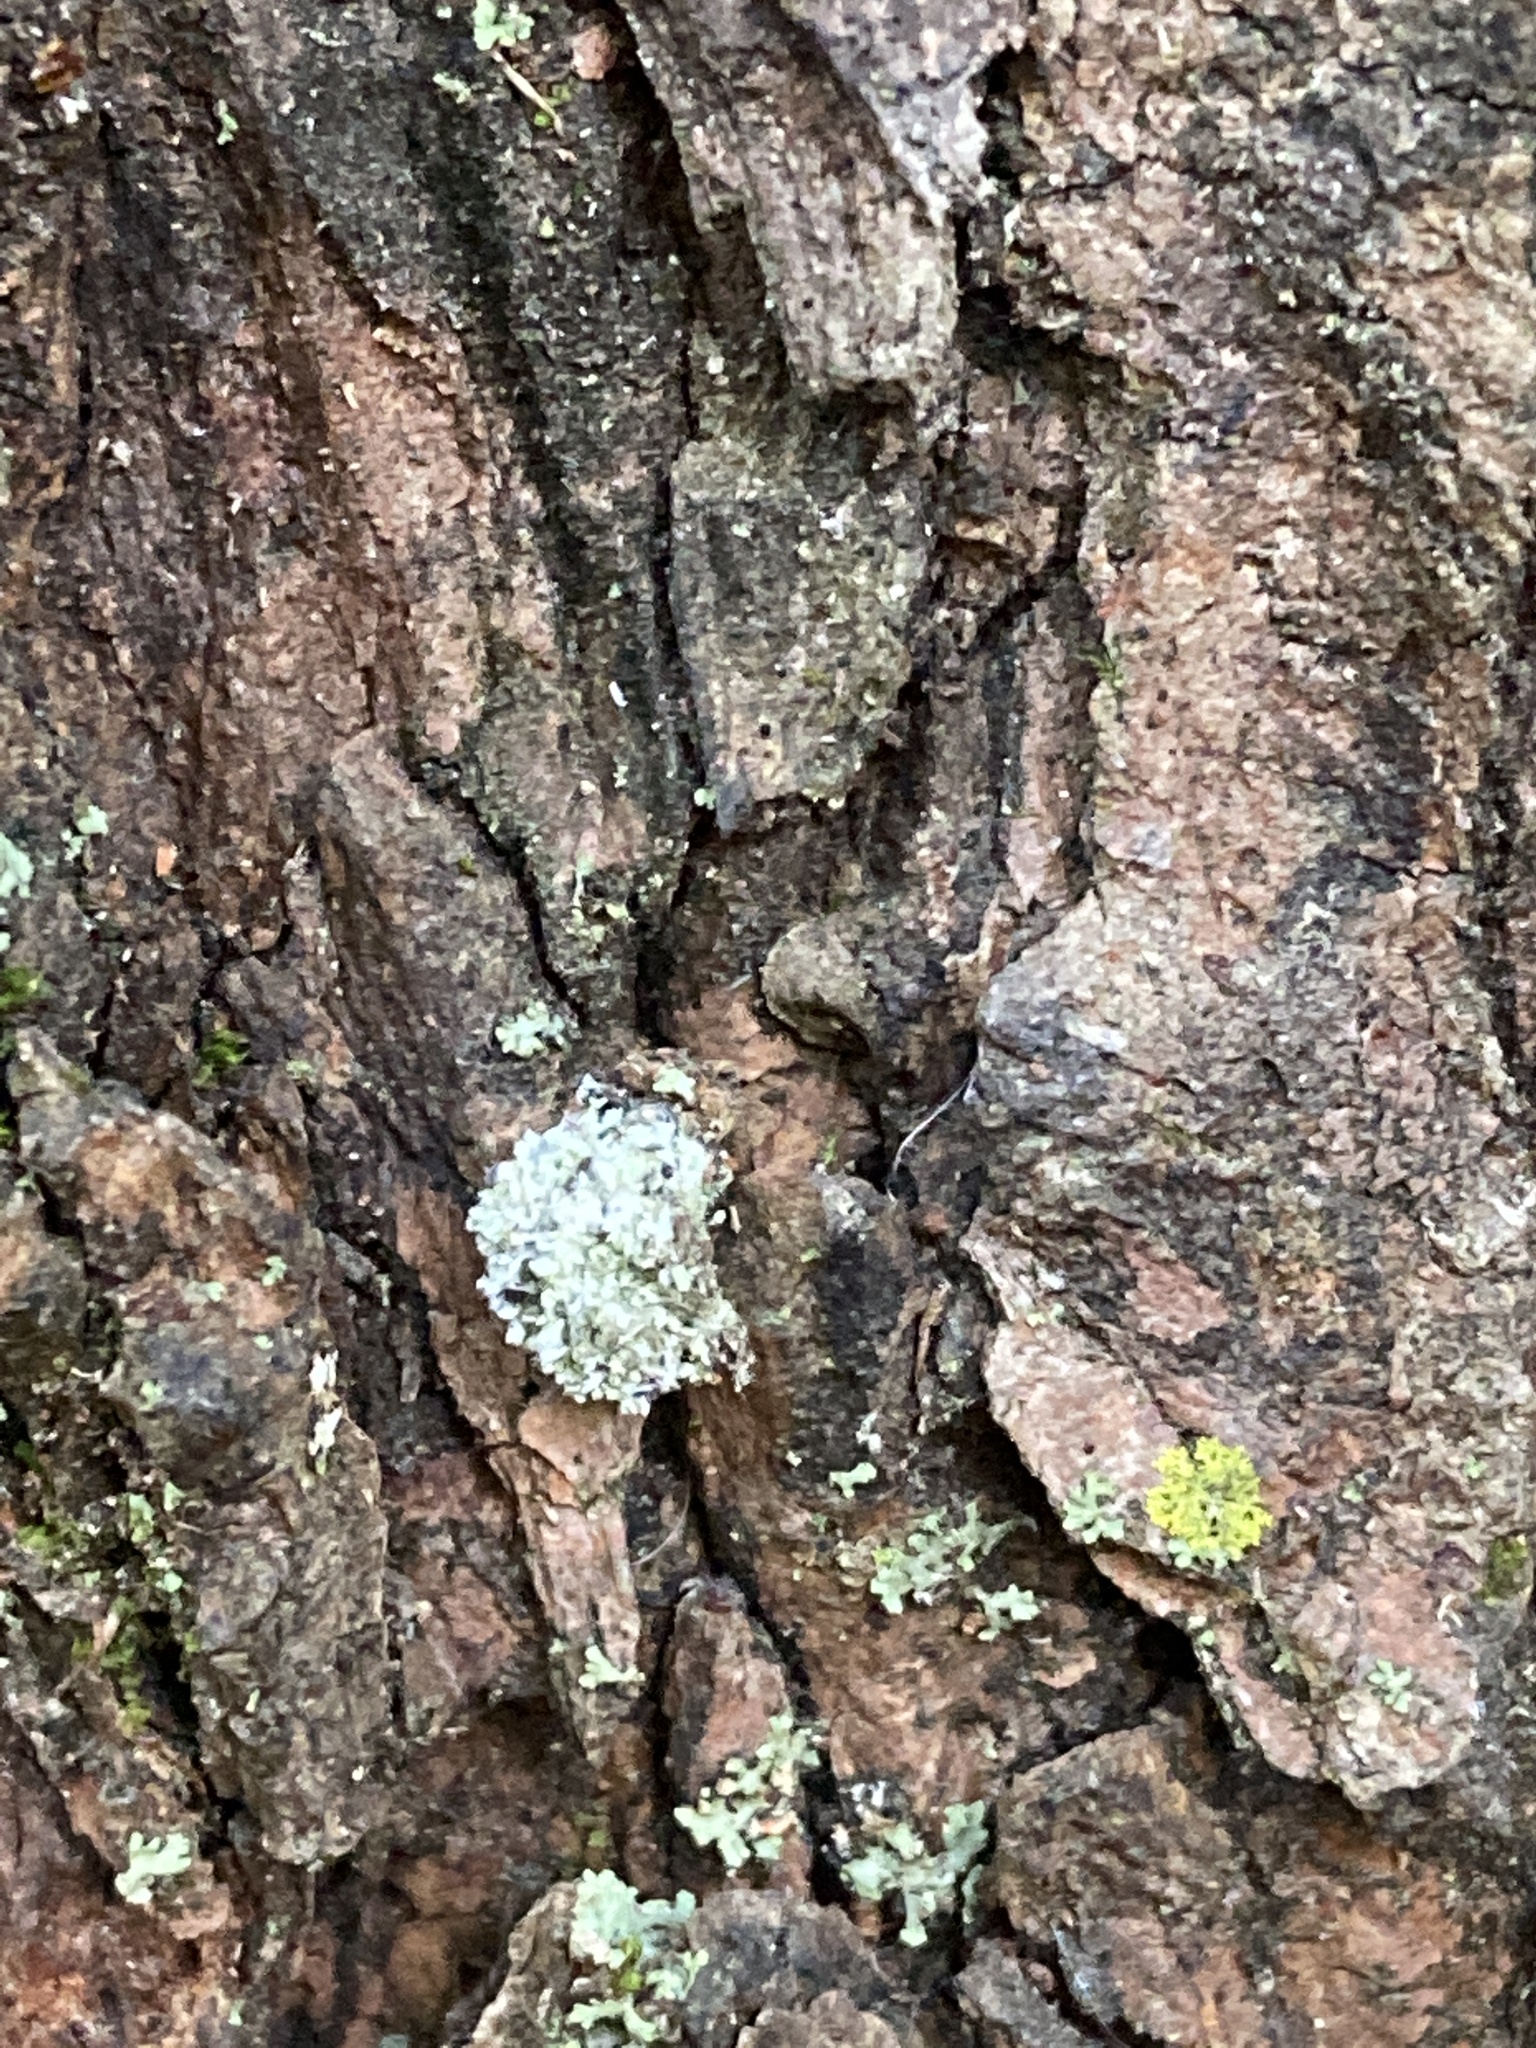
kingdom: Animalia
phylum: Arthropoda
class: Insecta
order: Neuroptera
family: Chrysopidae
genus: Leucochrysa
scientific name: Leucochrysa pavida
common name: Lichen-carrying green lacewing
